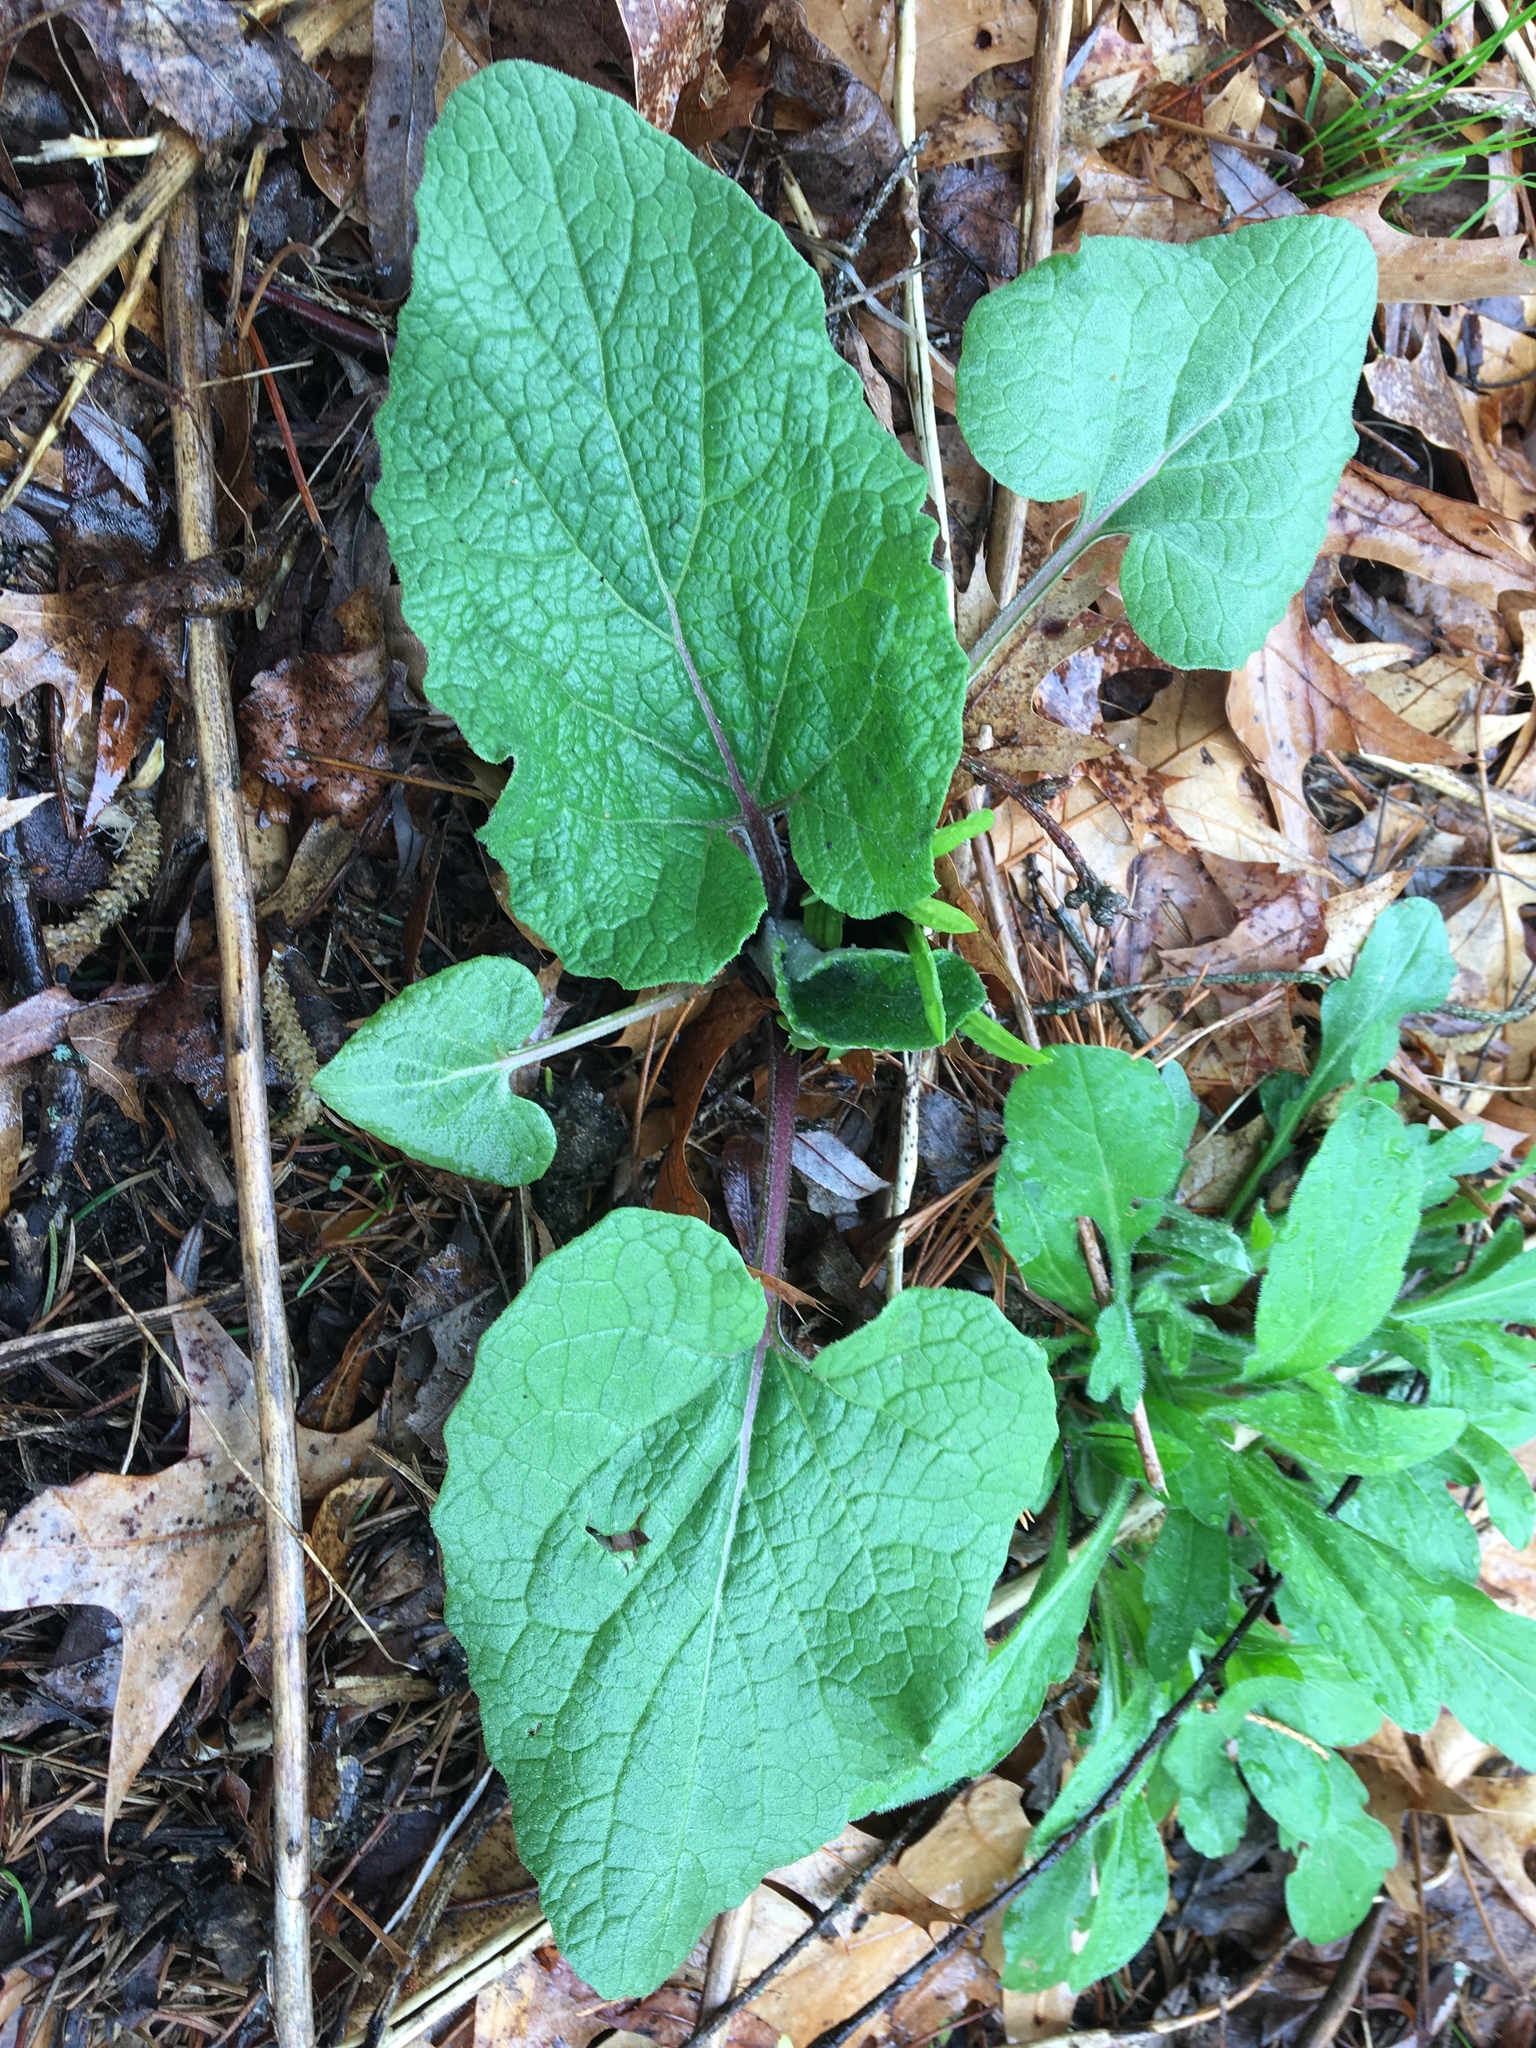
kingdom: Plantae
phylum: Tracheophyta
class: Magnoliopsida
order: Asterales
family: Asteraceae
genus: Arctium
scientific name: Arctium lappa
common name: Greater burdock
